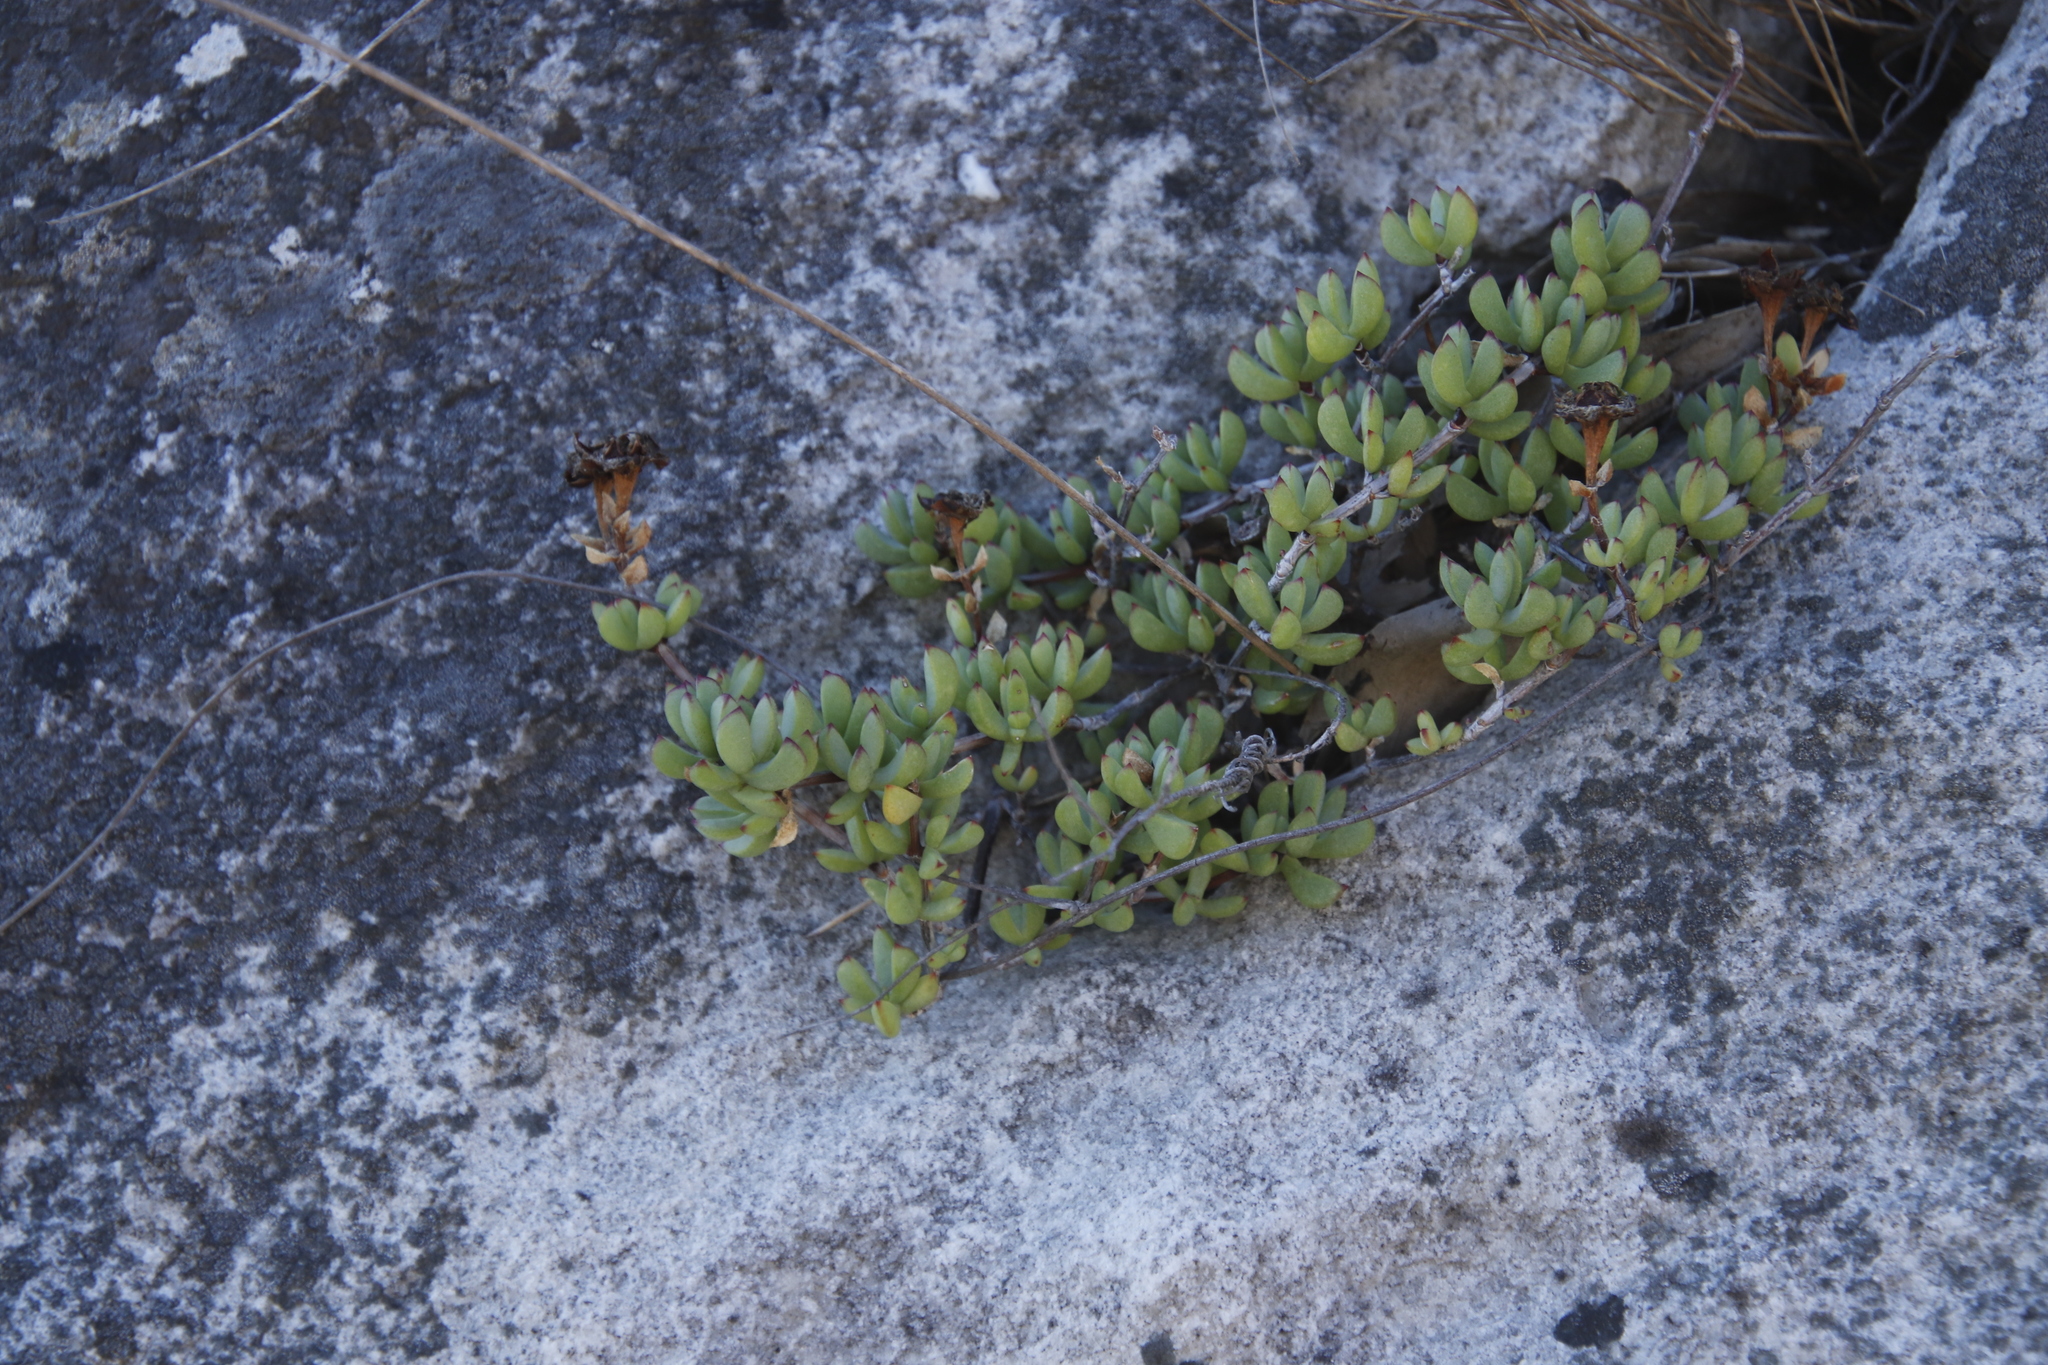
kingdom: Plantae
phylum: Tracheophyta
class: Magnoliopsida
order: Caryophyllales
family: Aizoaceae
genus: Oscularia
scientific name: Oscularia falciformis
